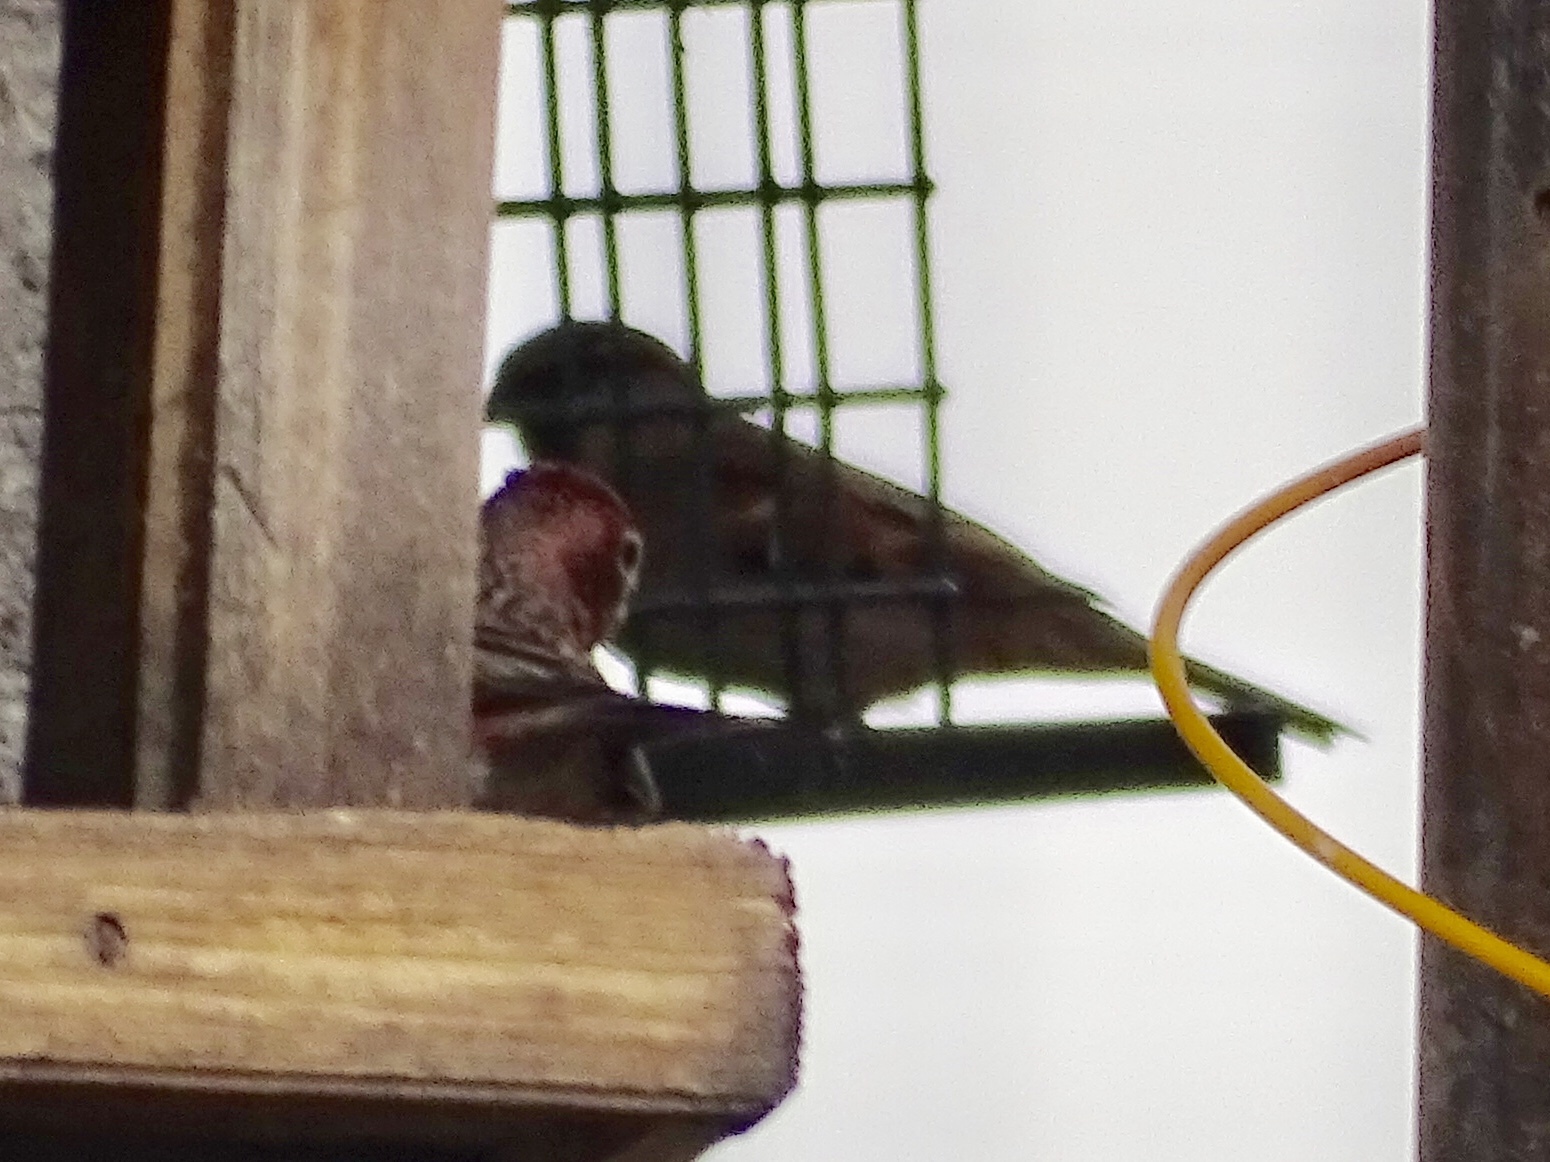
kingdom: Animalia
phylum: Chordata
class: Aves
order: Passeriformes
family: Fringillidae
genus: Haemorhous
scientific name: Haemorhous cassinii
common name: Cassin's finch
